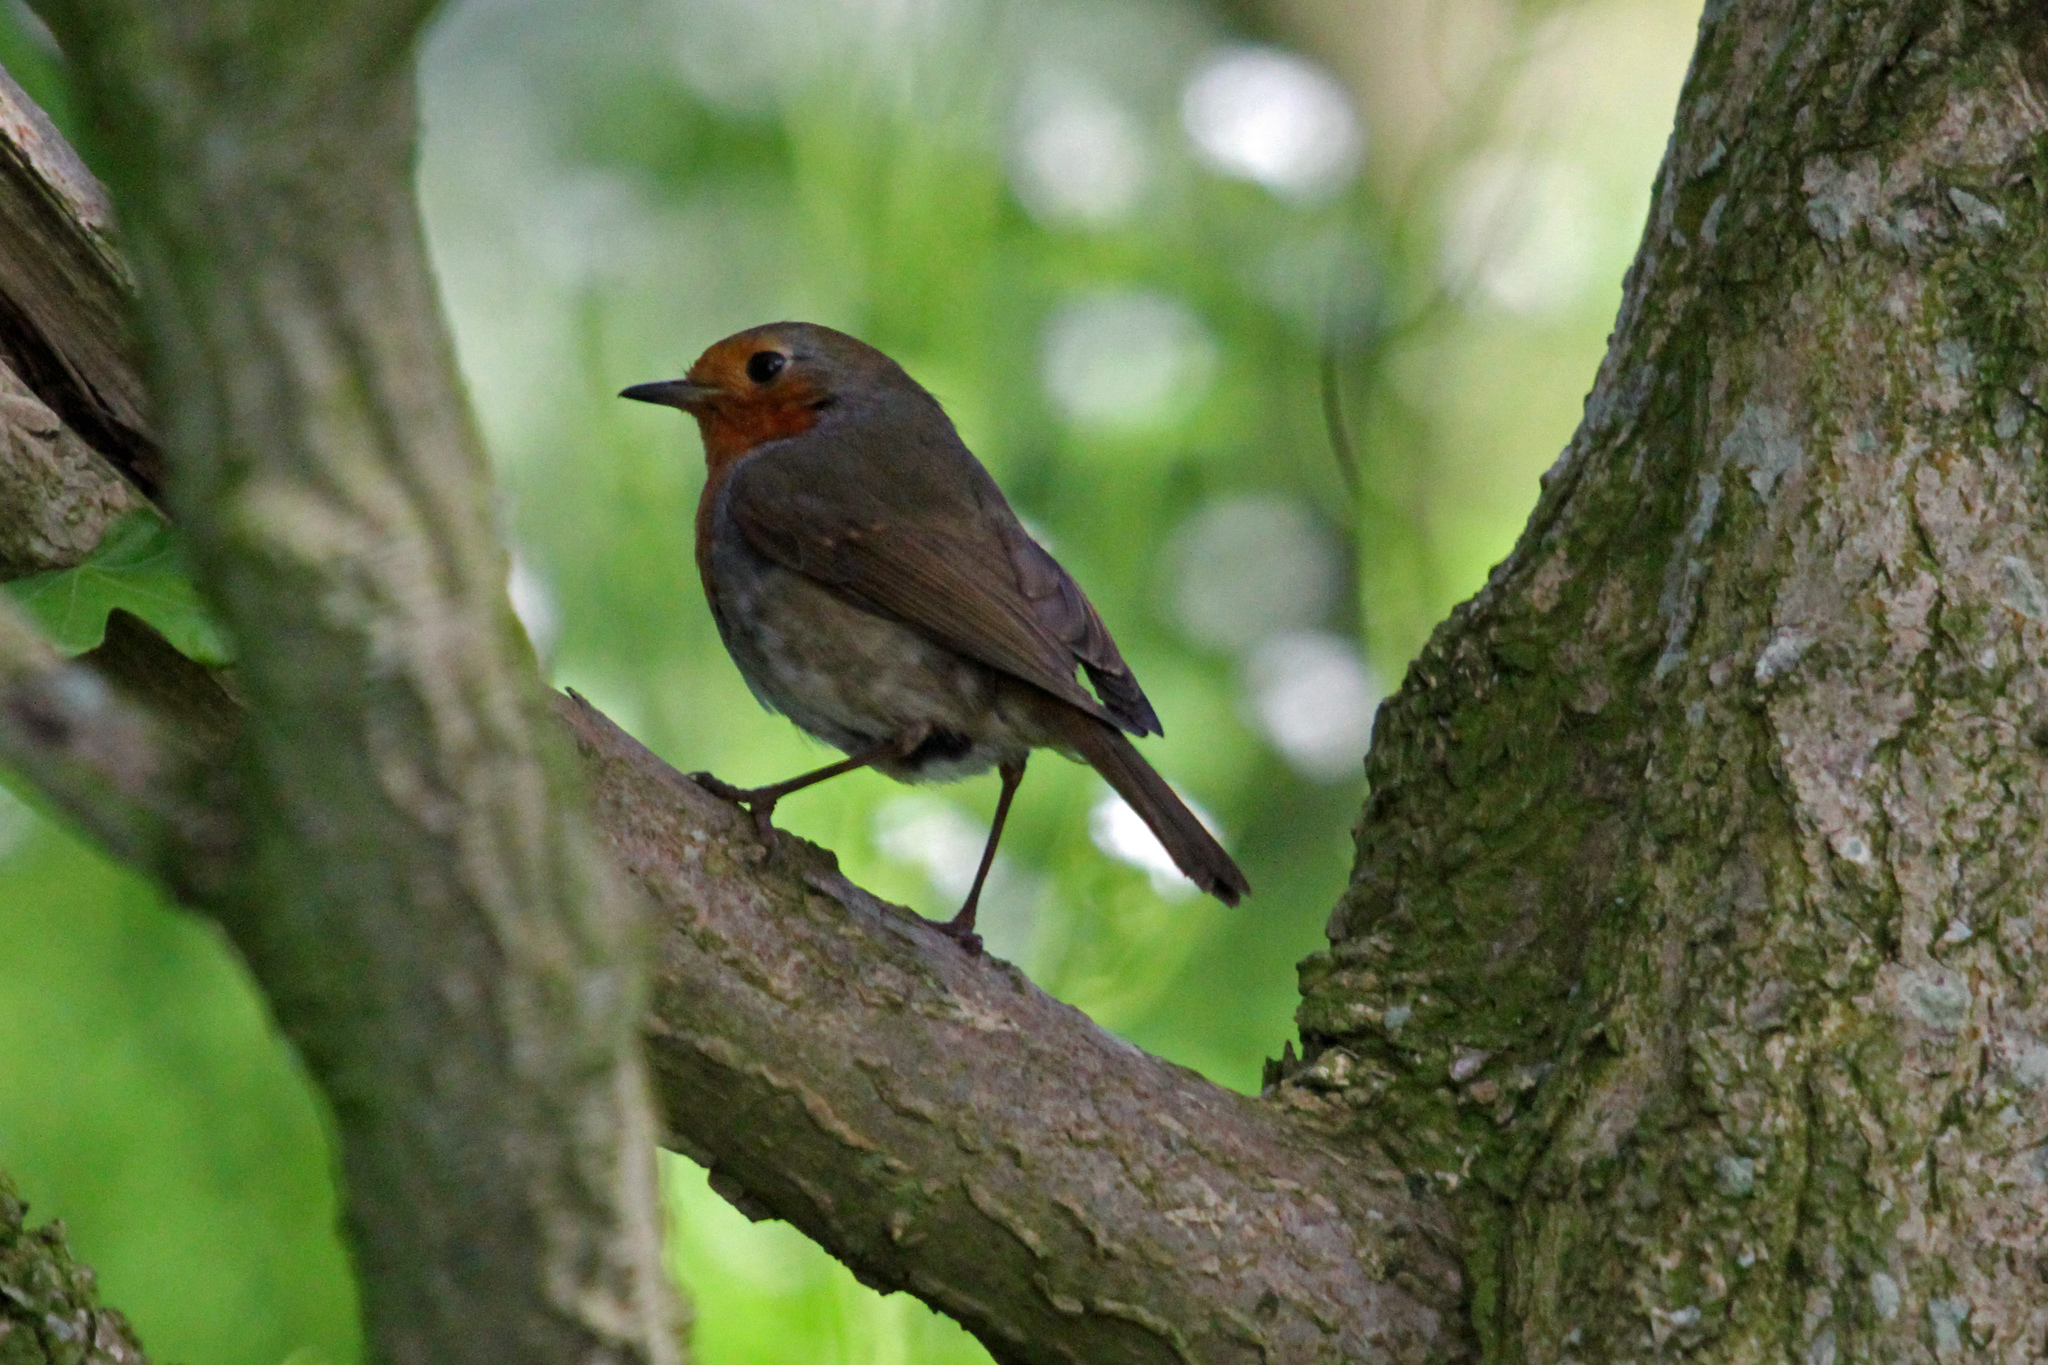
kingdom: Animalia
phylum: Chordata
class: Aves
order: Passeriformes
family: Muscicapidae
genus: Erithacus
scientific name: Erithacus rubecula
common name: European robin
